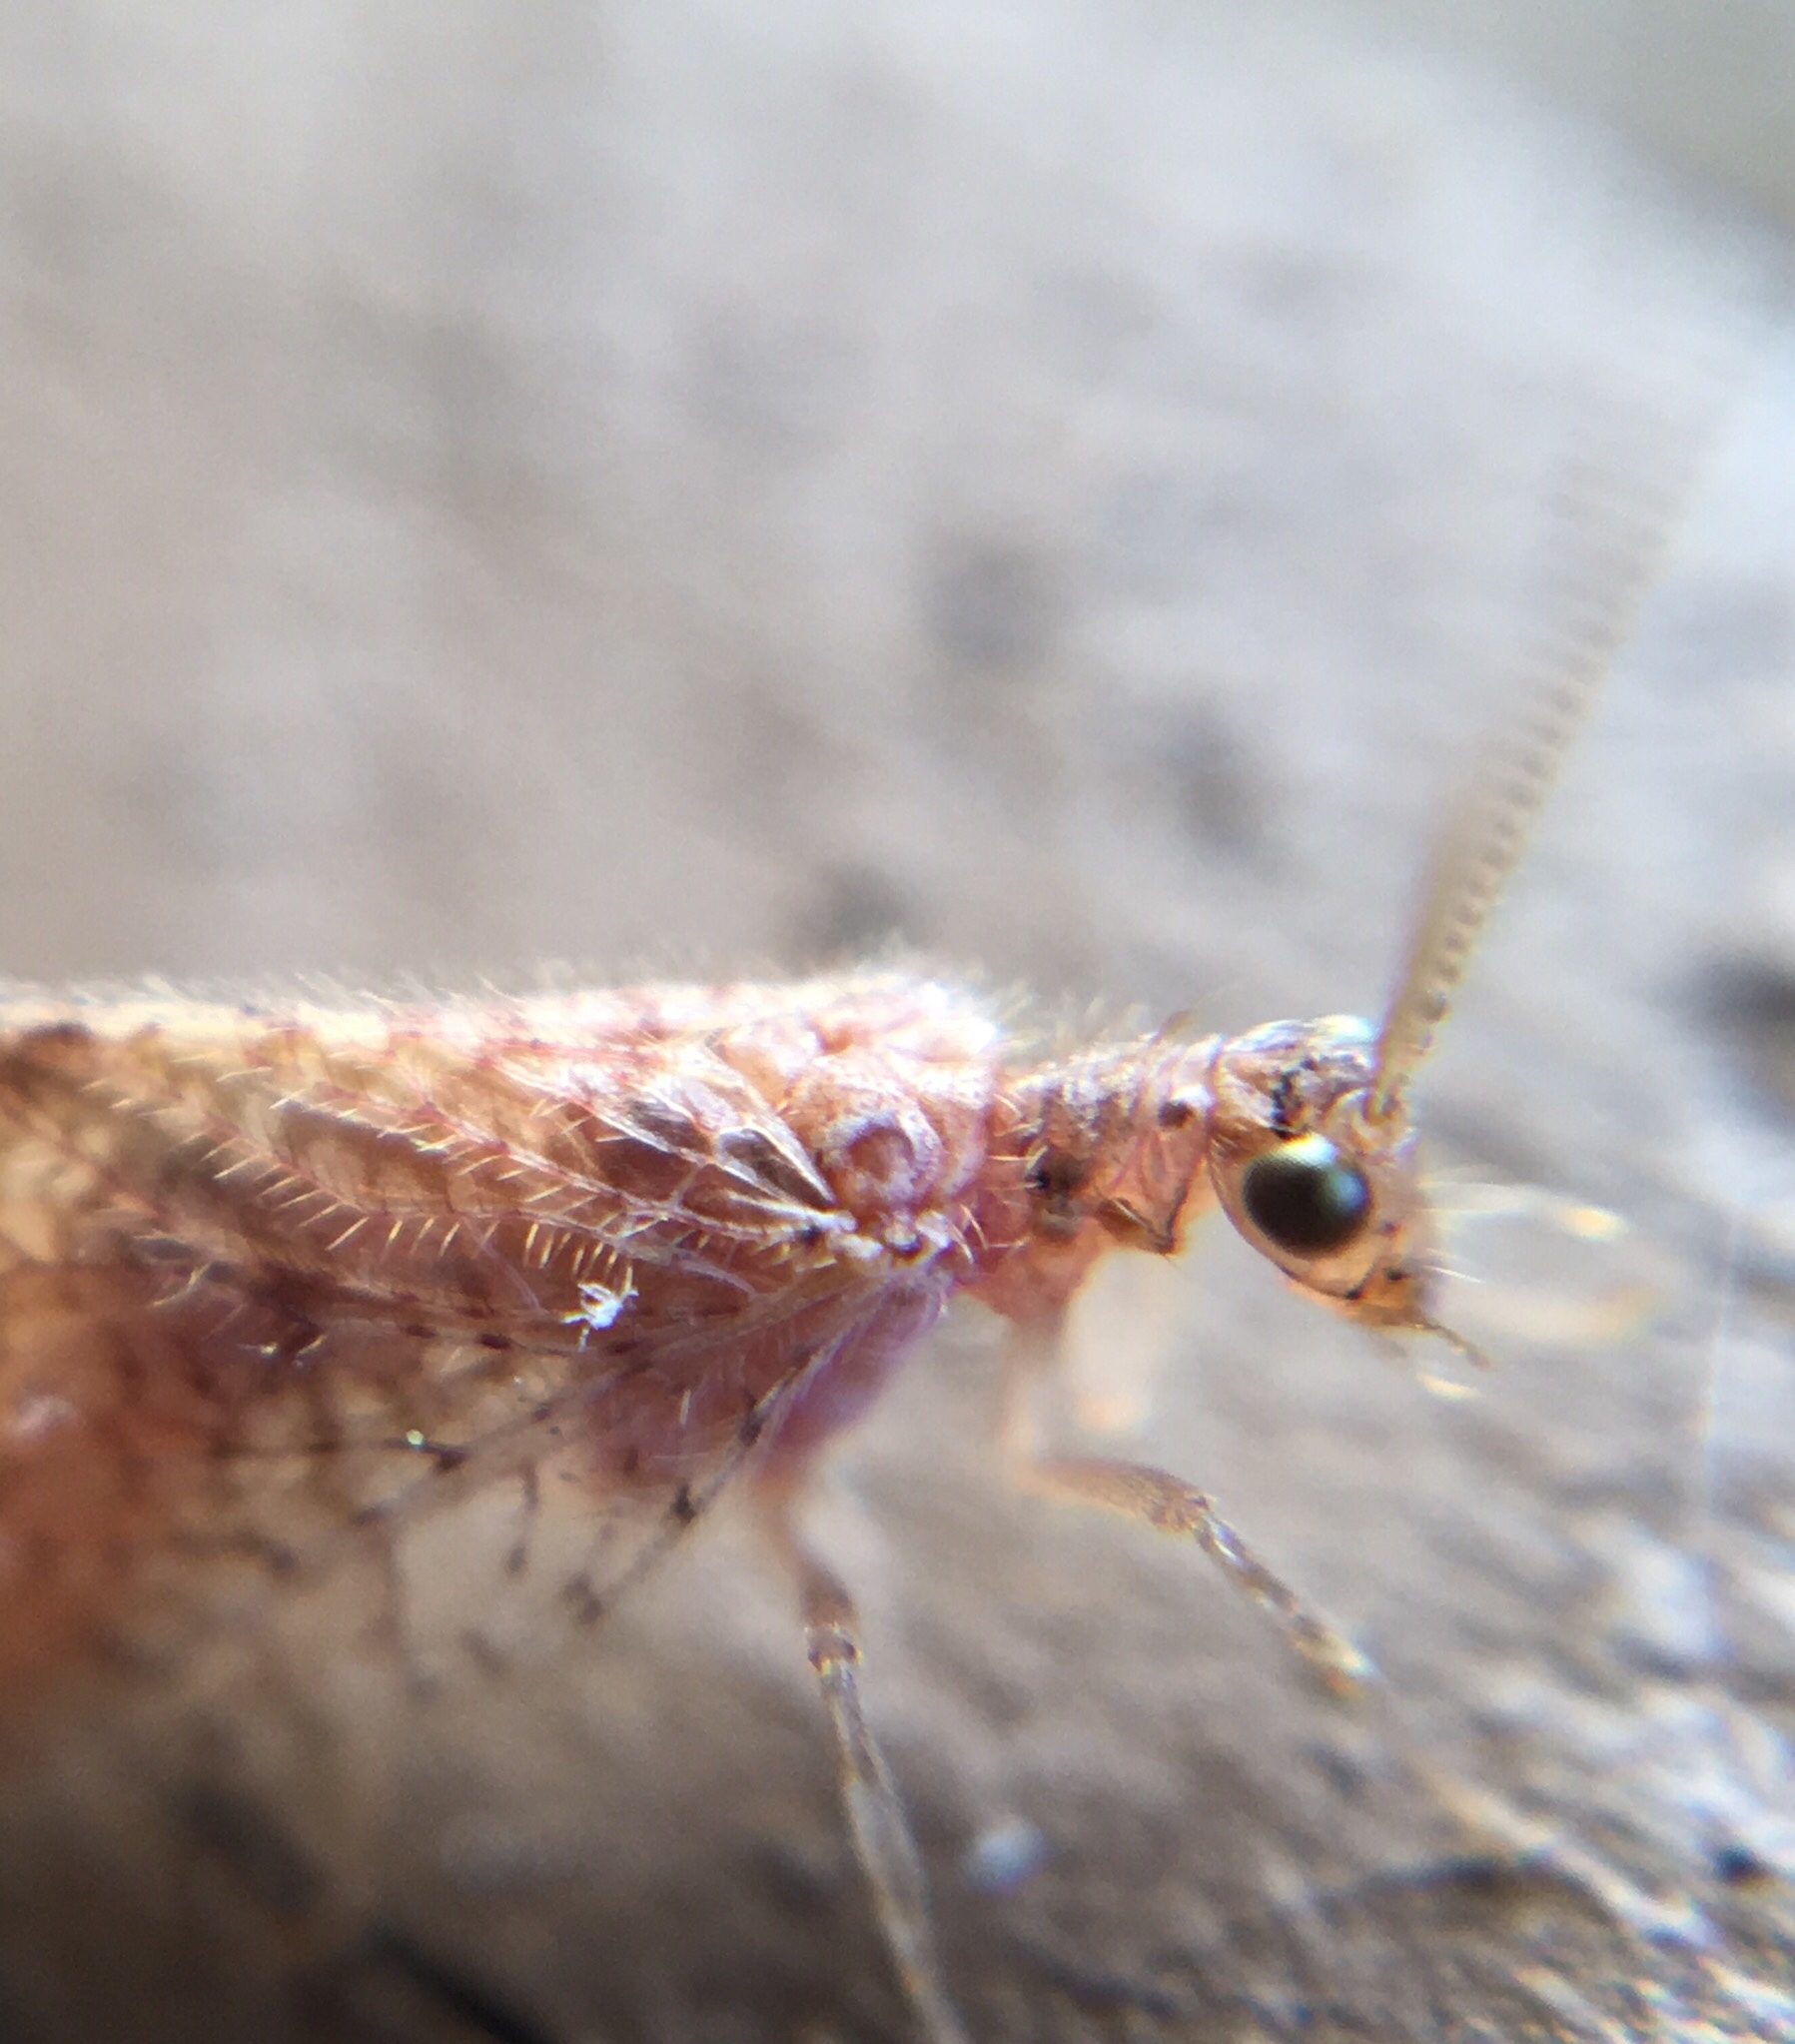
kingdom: Animalia
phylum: Arthropoda
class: Insecta
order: Neuroptera
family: Hemerobiidae
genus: Micromus
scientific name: Micromus posticus
